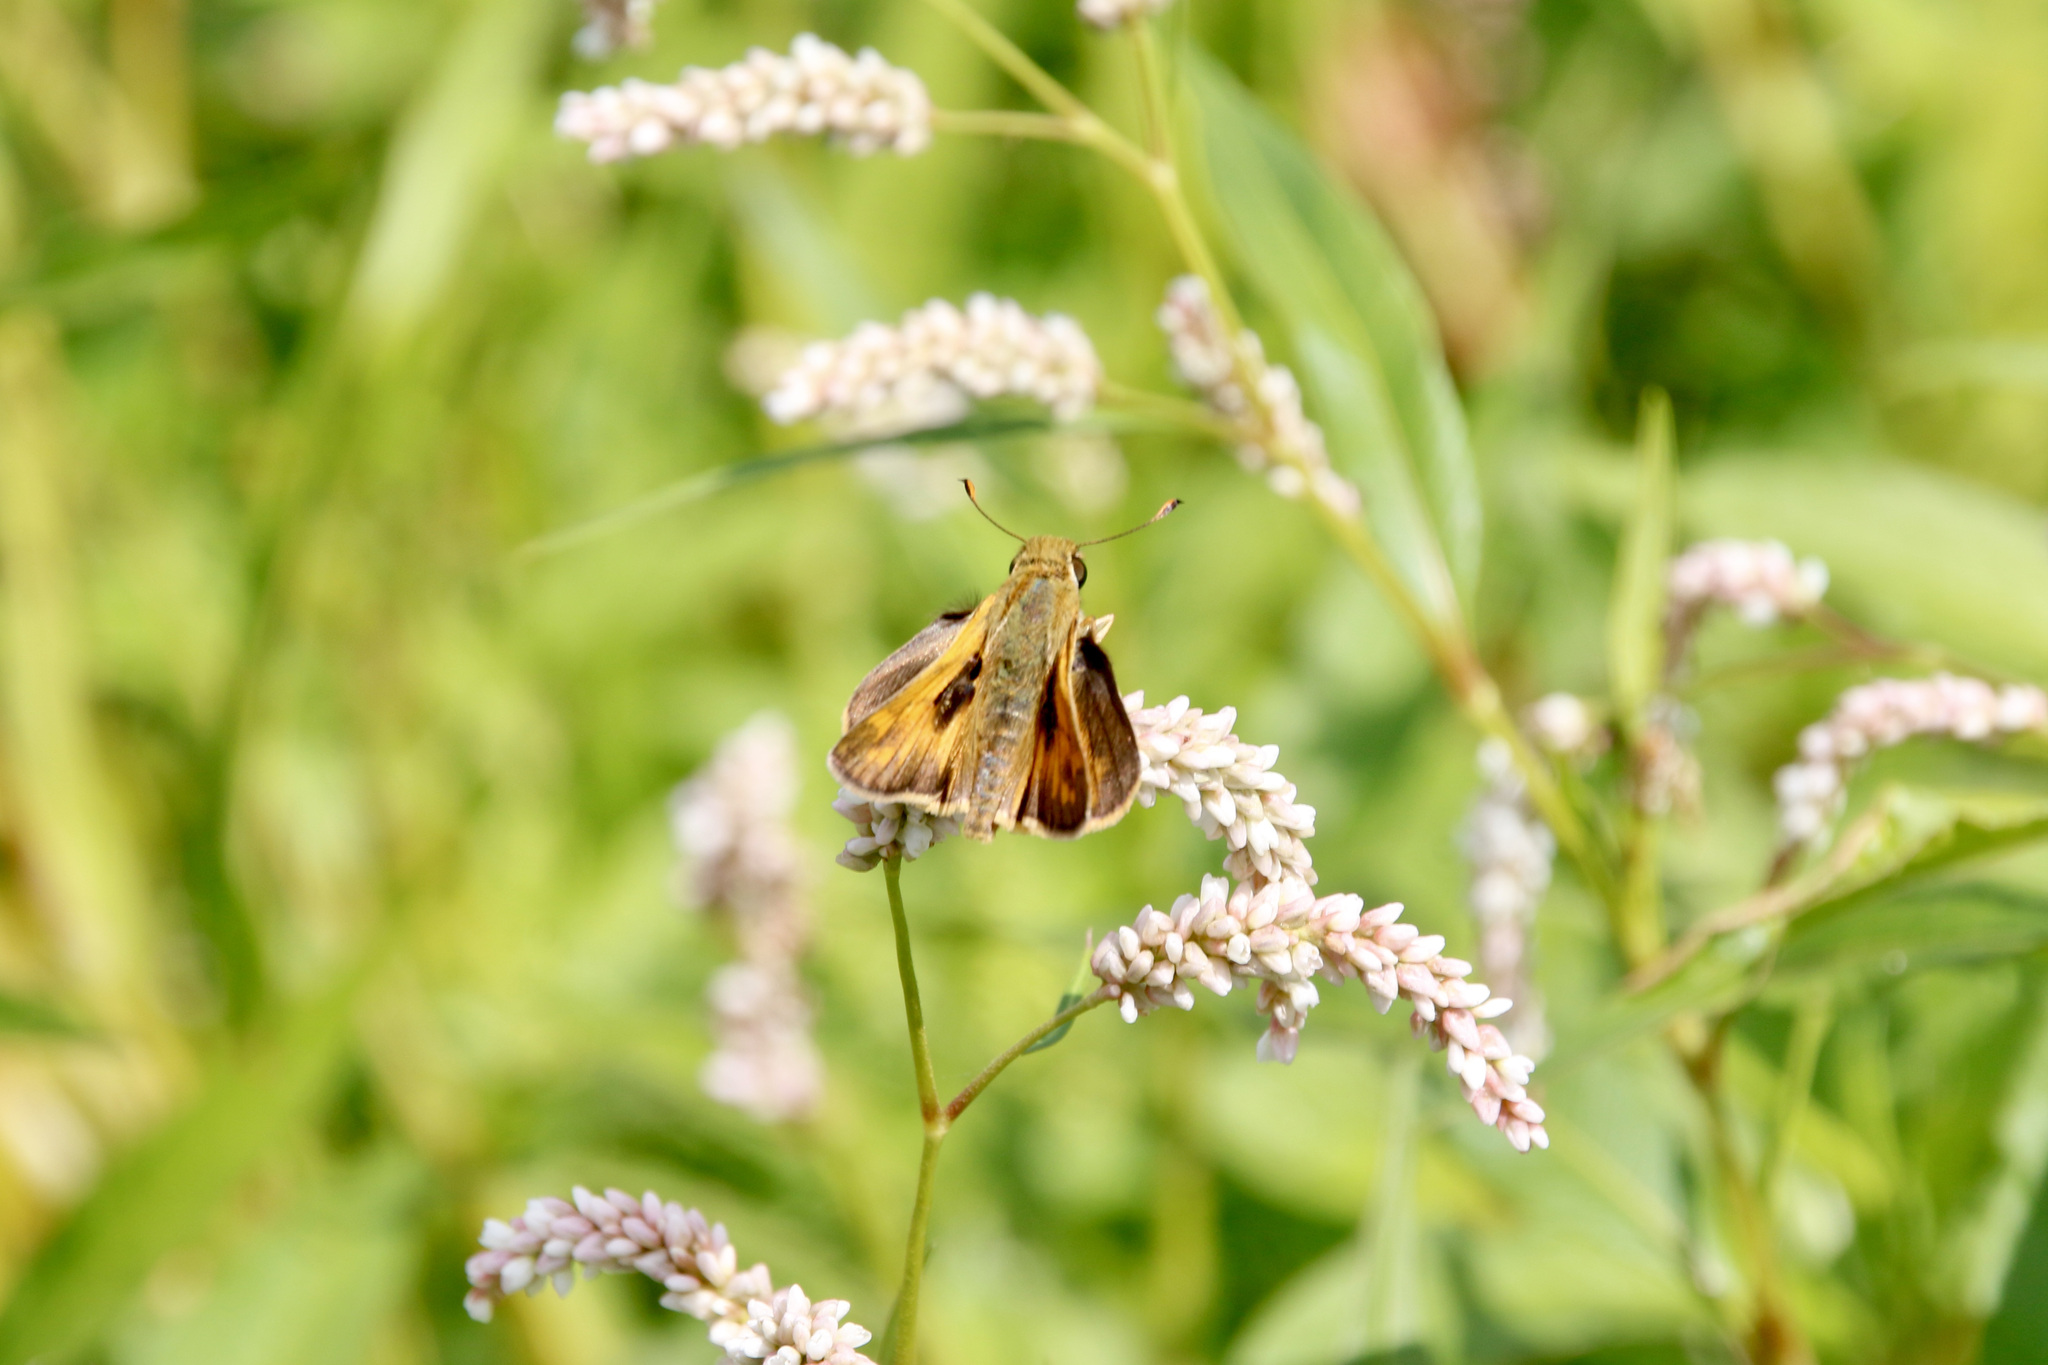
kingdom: Animalia
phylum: Arthropoda
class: Insecta
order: Lepidoptera
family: Hesperiidae
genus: Atalopedes
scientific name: Atalopedes
